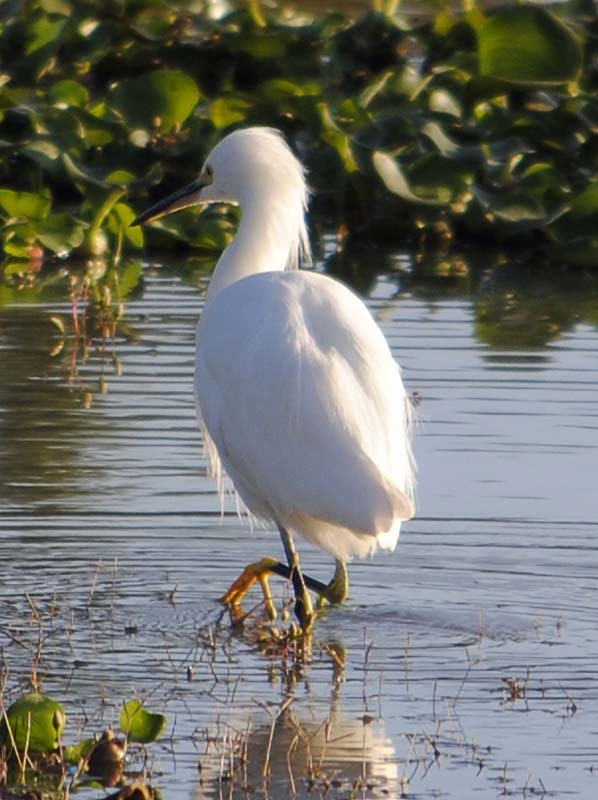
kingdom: Animalia
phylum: Chordata
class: Aves
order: Pelecaniformes
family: Ardeidae
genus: Egretta
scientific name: Egretta thula
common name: Snowy egret
